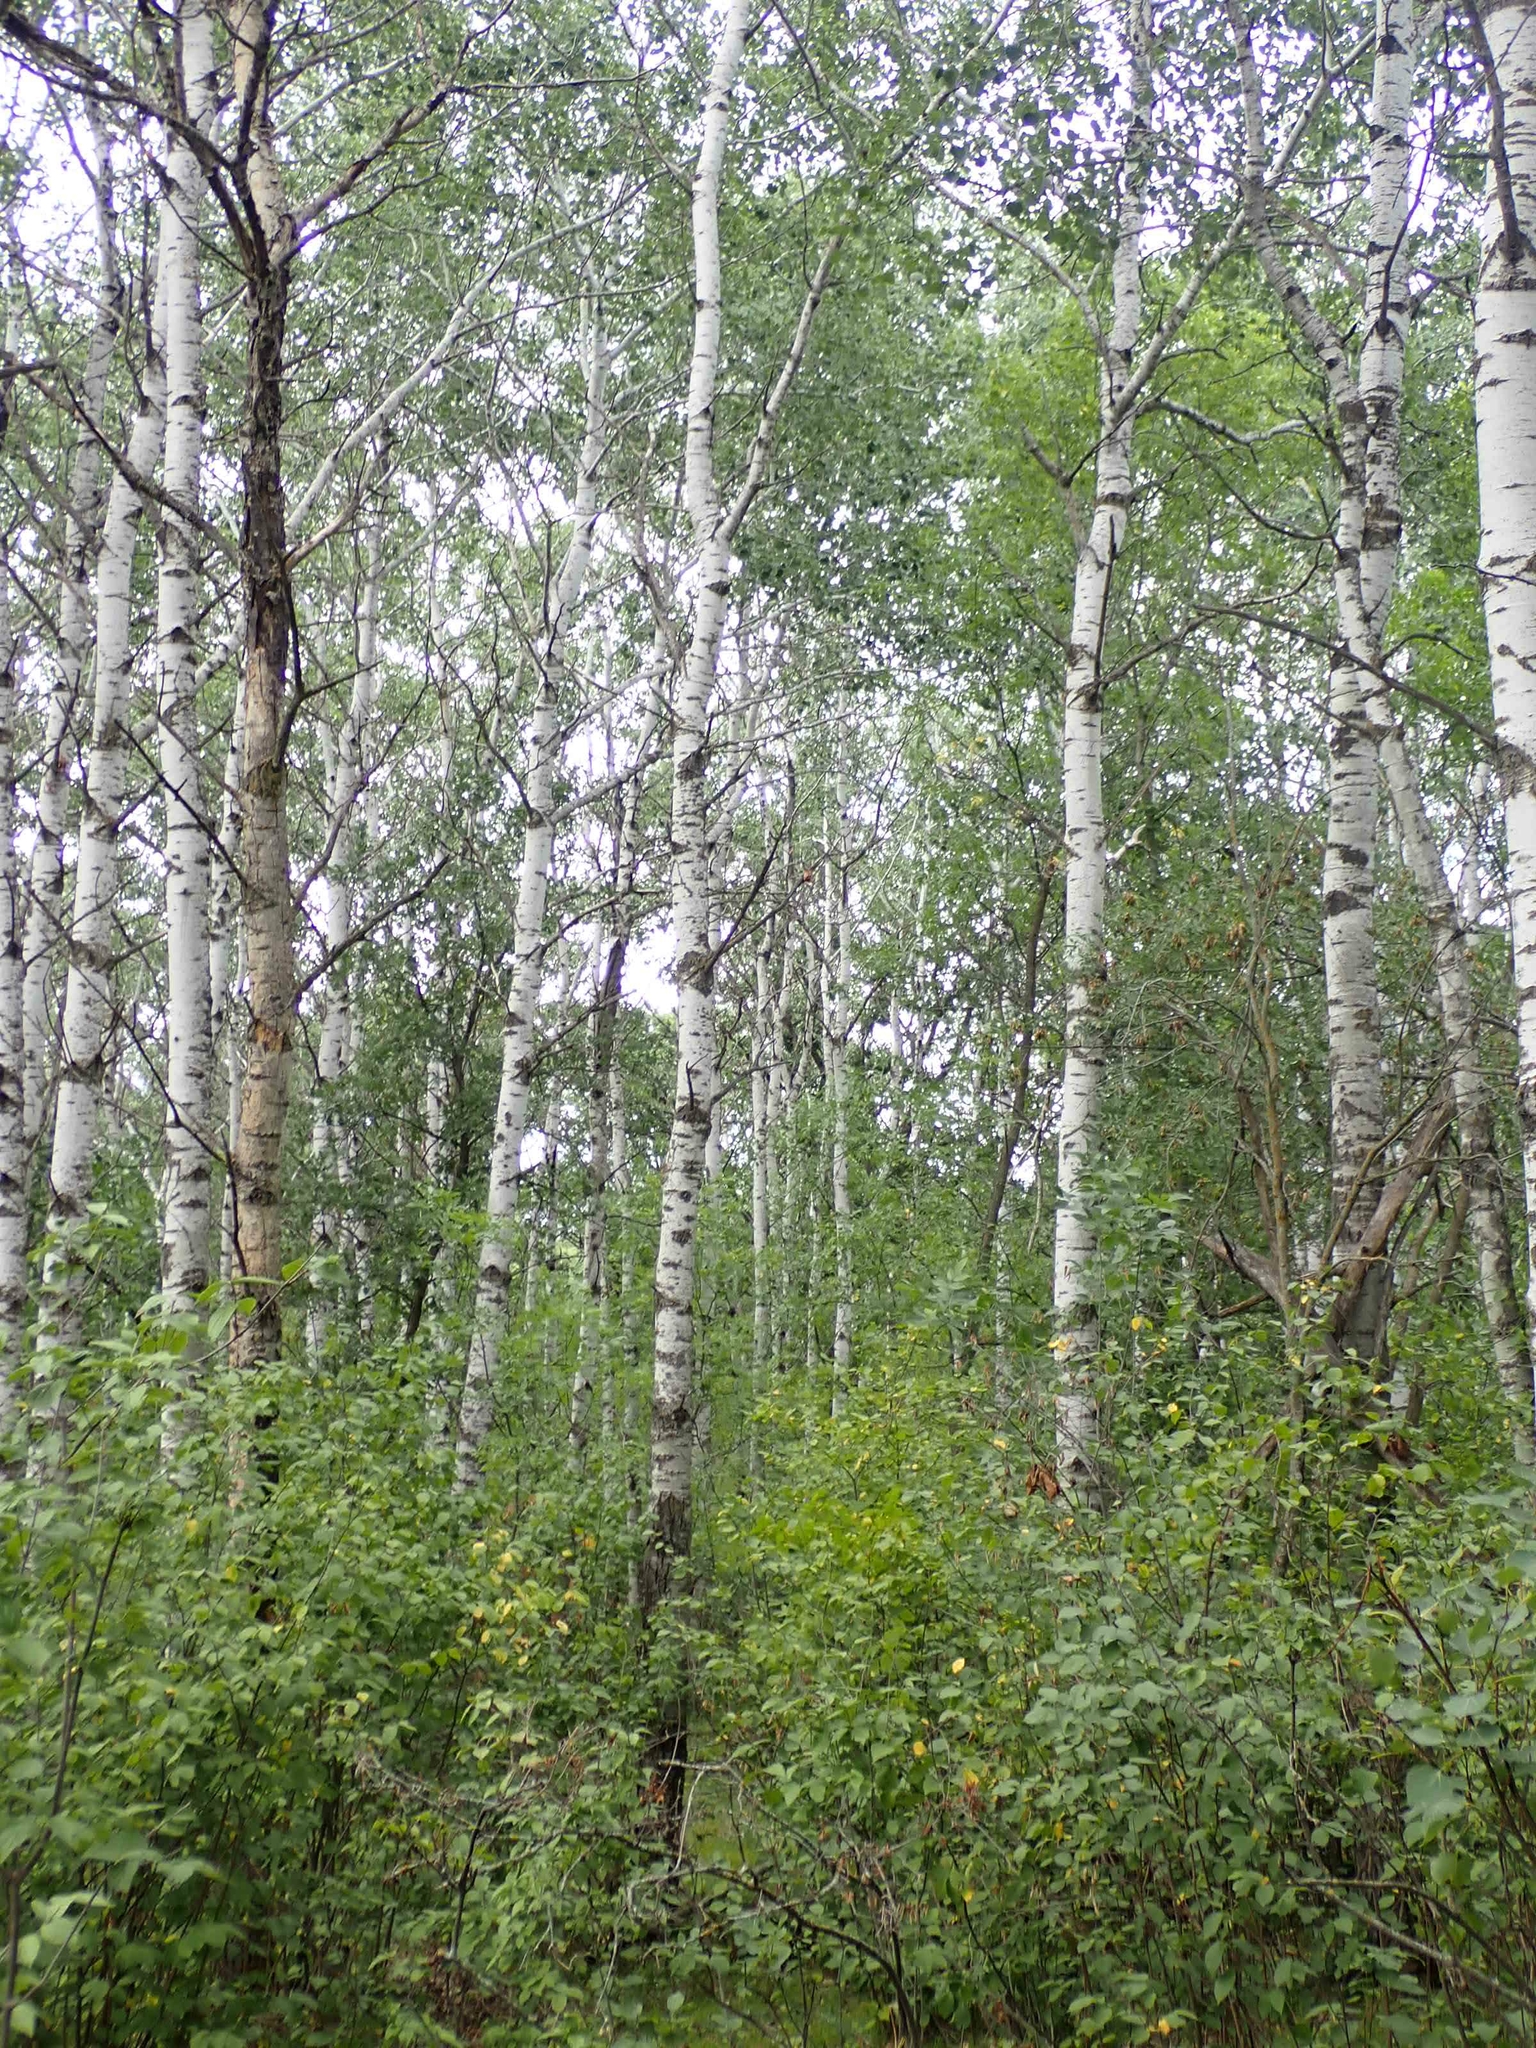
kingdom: Plantae
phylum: Tracheophyta
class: Magnoliopsida
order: Malpighiales
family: Salicaceae
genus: Populus
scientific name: Populus tremuloides
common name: Quaking aspen
